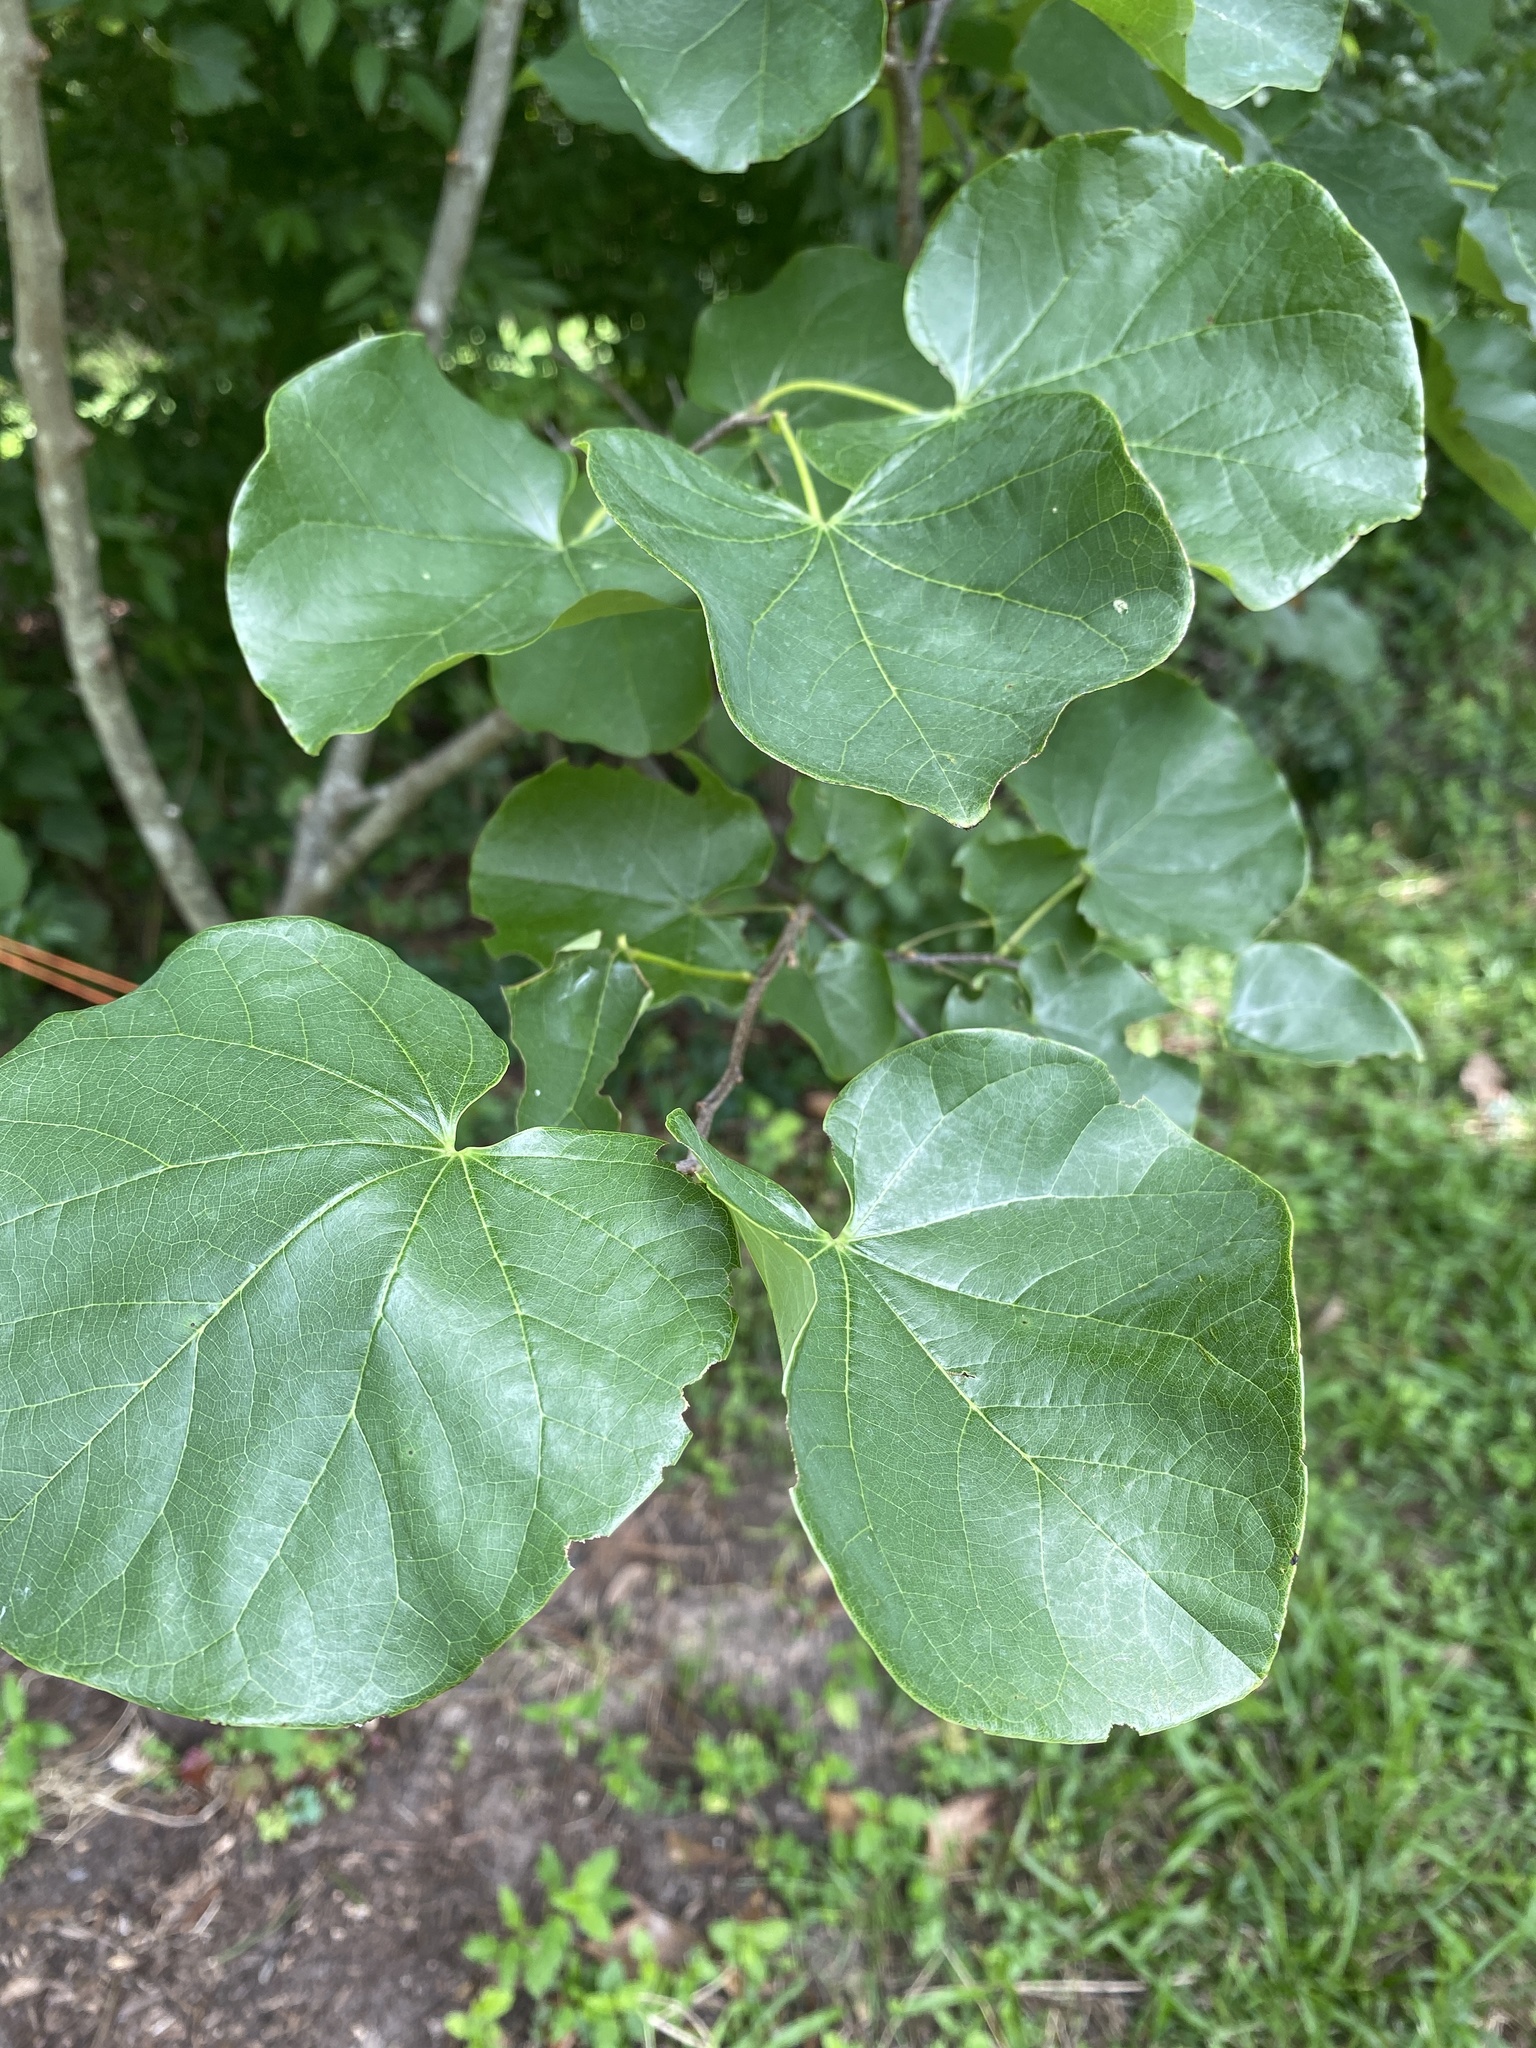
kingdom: Plantae
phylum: Tracheophyta
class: Magnoliopsida
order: Fabales
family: Fabaceae
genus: Cercis
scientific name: Cercis canadensis
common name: Eastern redbud
